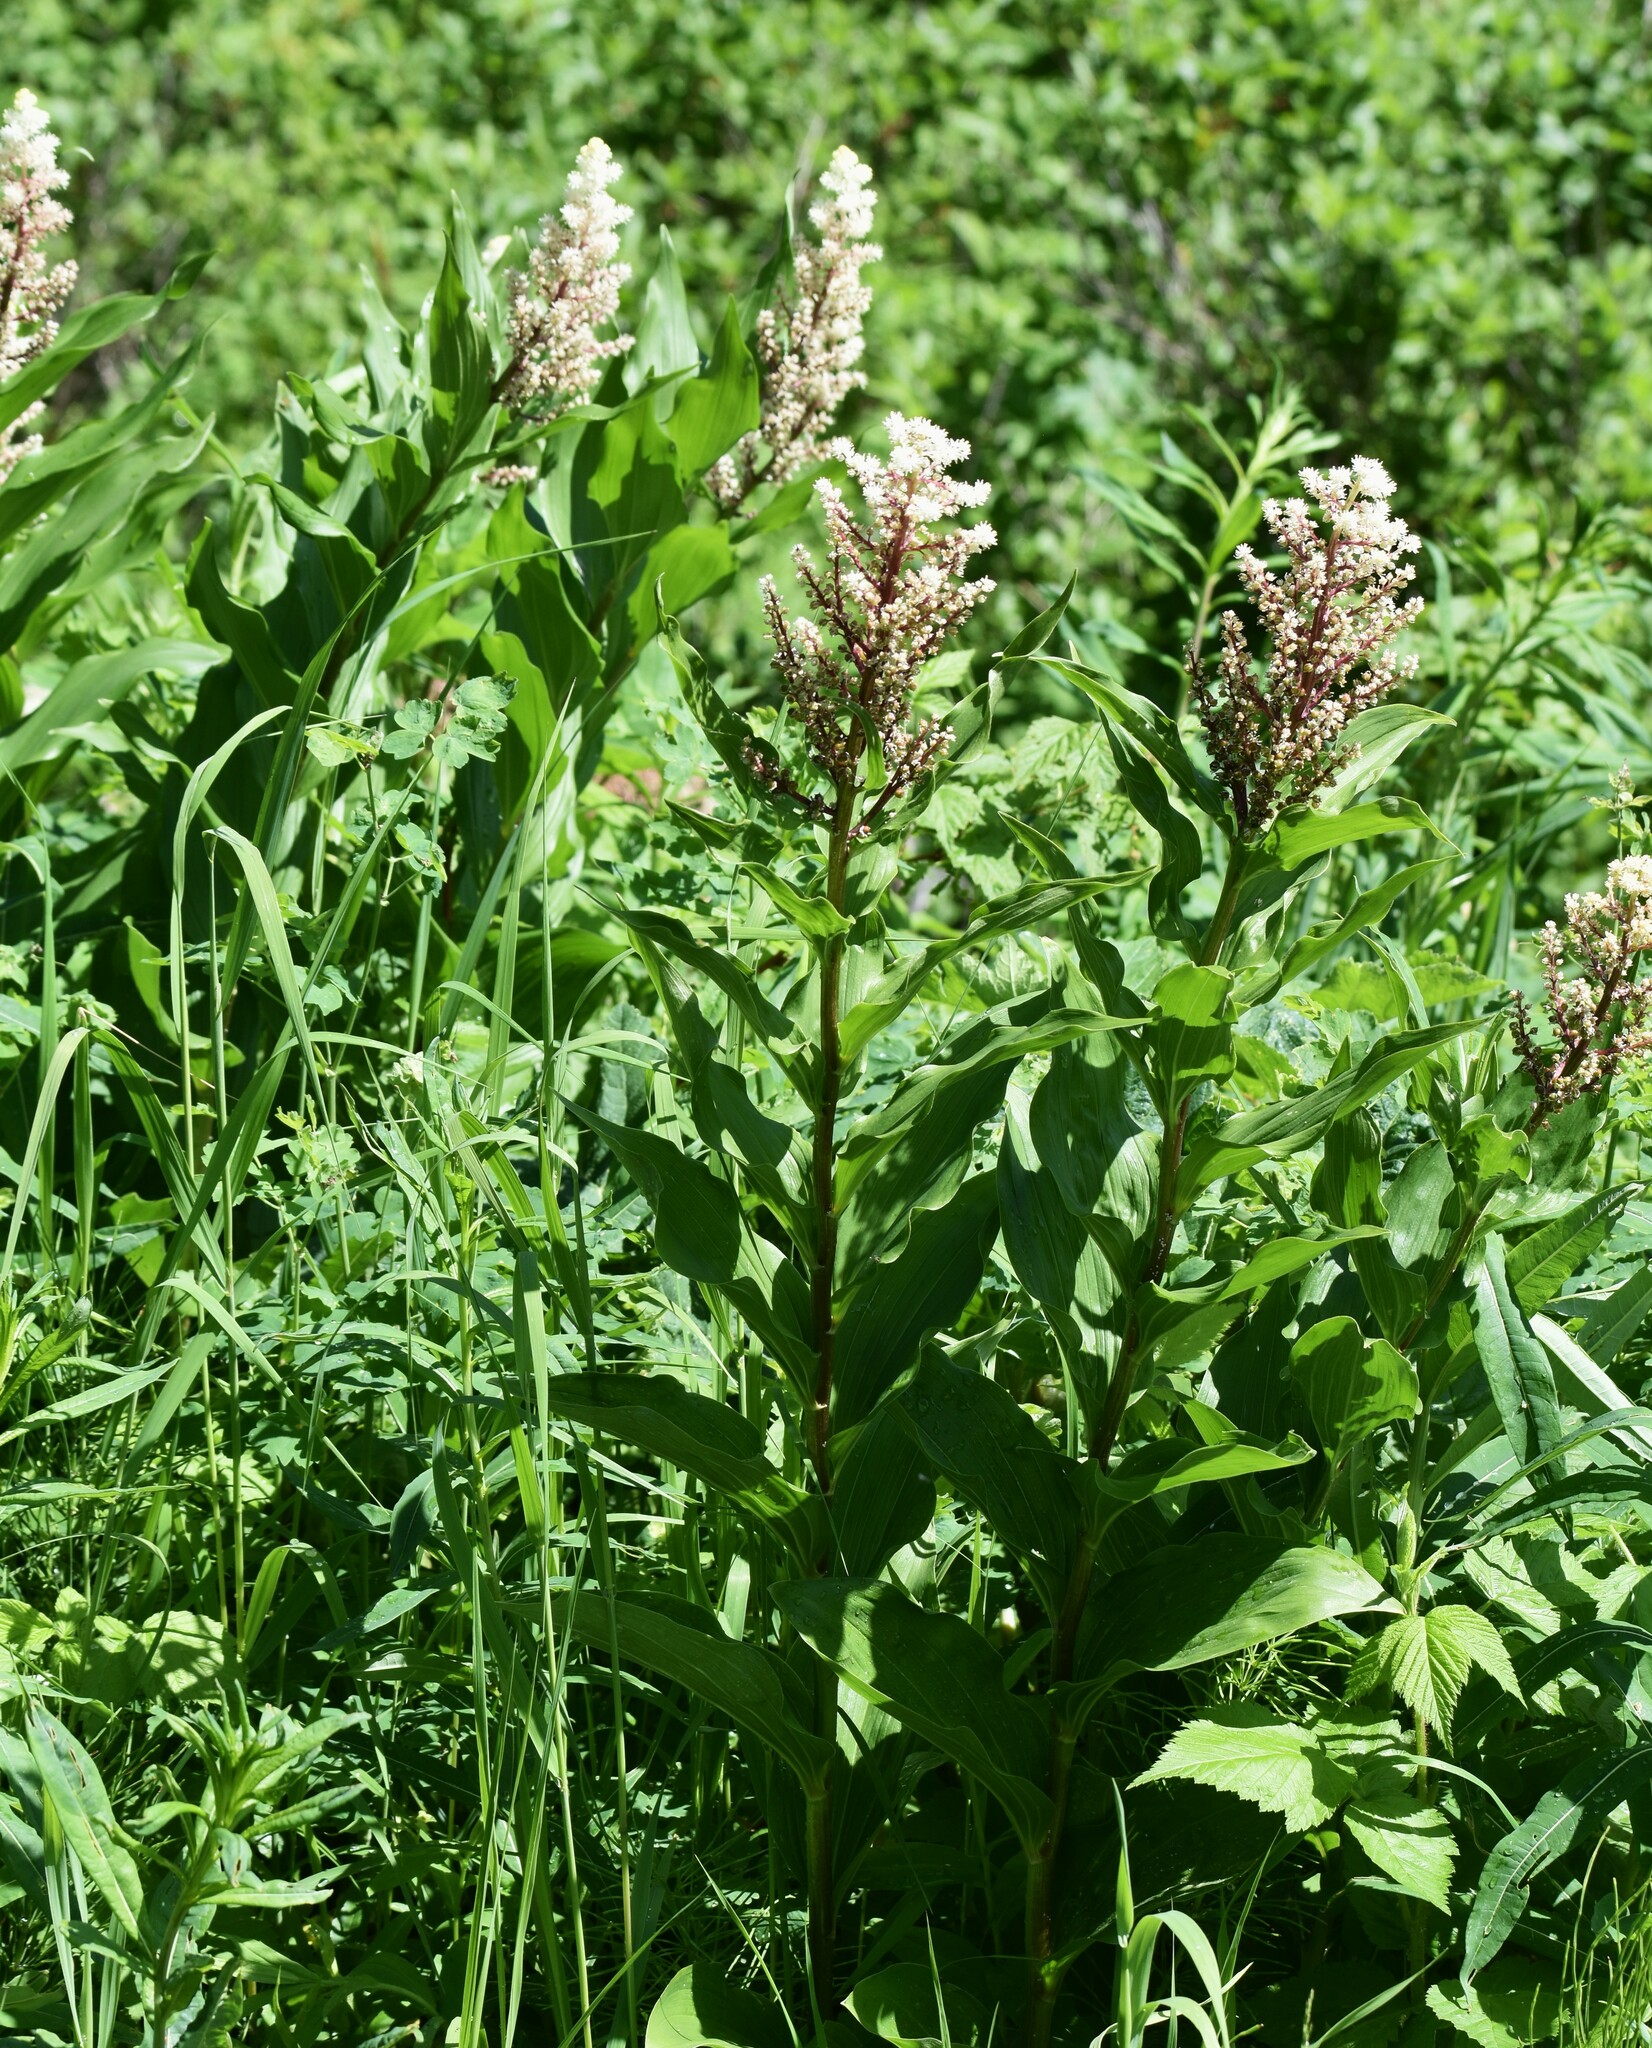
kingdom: Plantae
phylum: Tracheophyta
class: Liliopsida
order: Asparagales
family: Asparagaceae
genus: Maianthemum
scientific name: Maianthemum racemosum
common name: False spikenard
